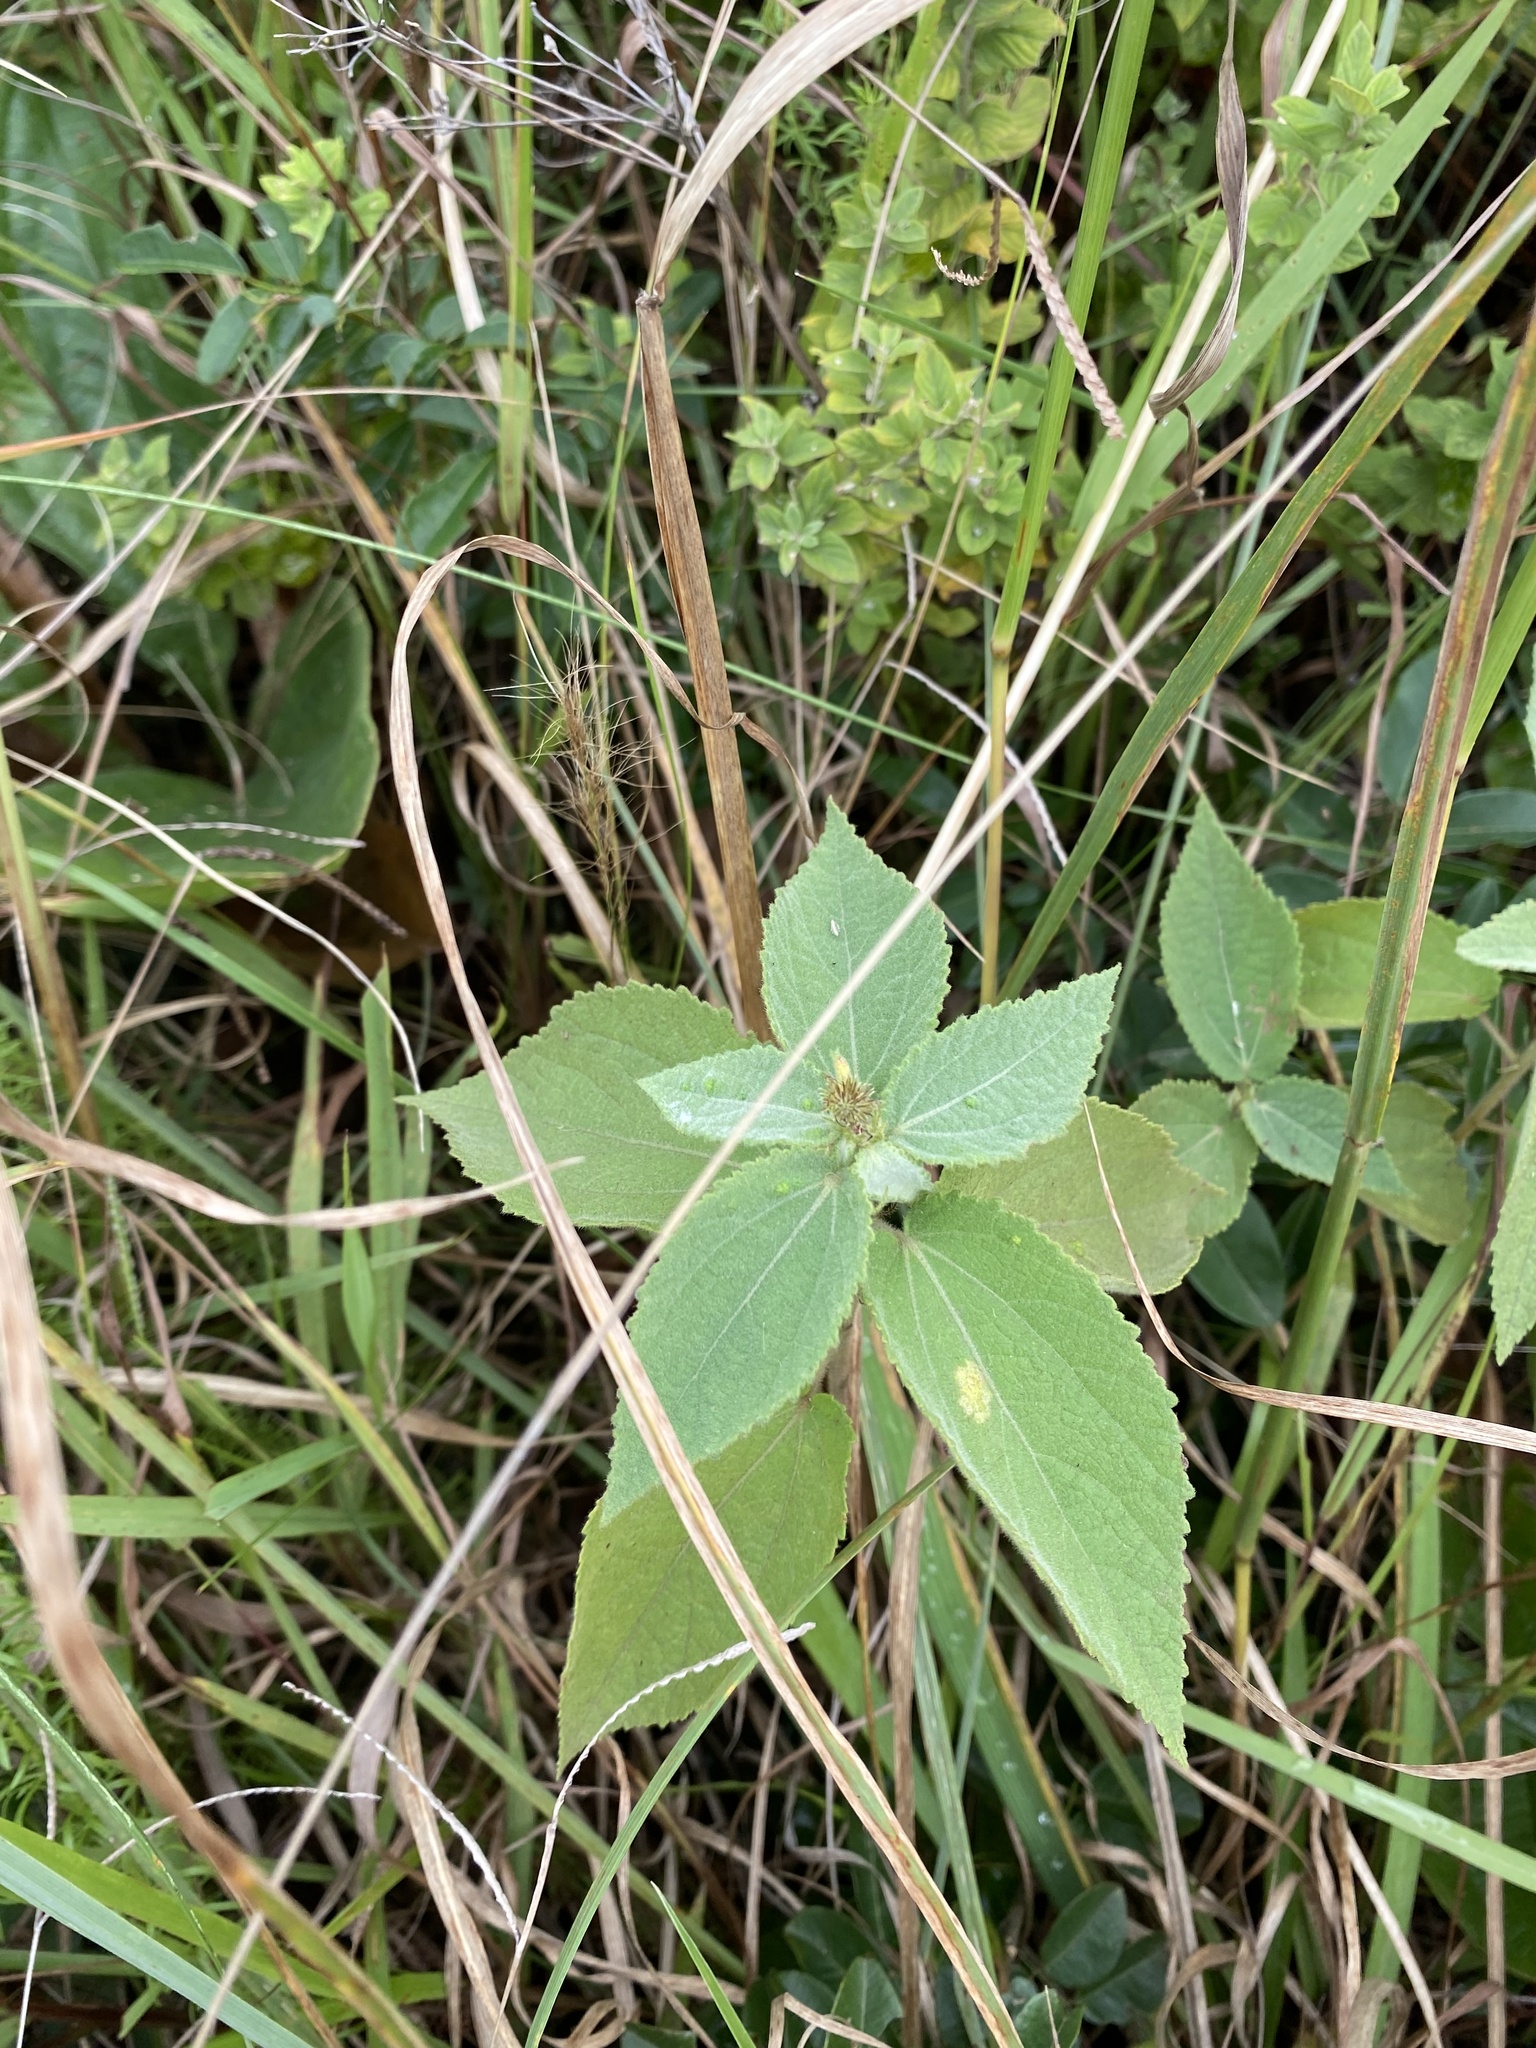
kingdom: Plantae
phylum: Tracheophyta
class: Magnoliopsida
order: Malvales
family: Malvaceae
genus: Triumfetta
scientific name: Triumfetta pilosa
